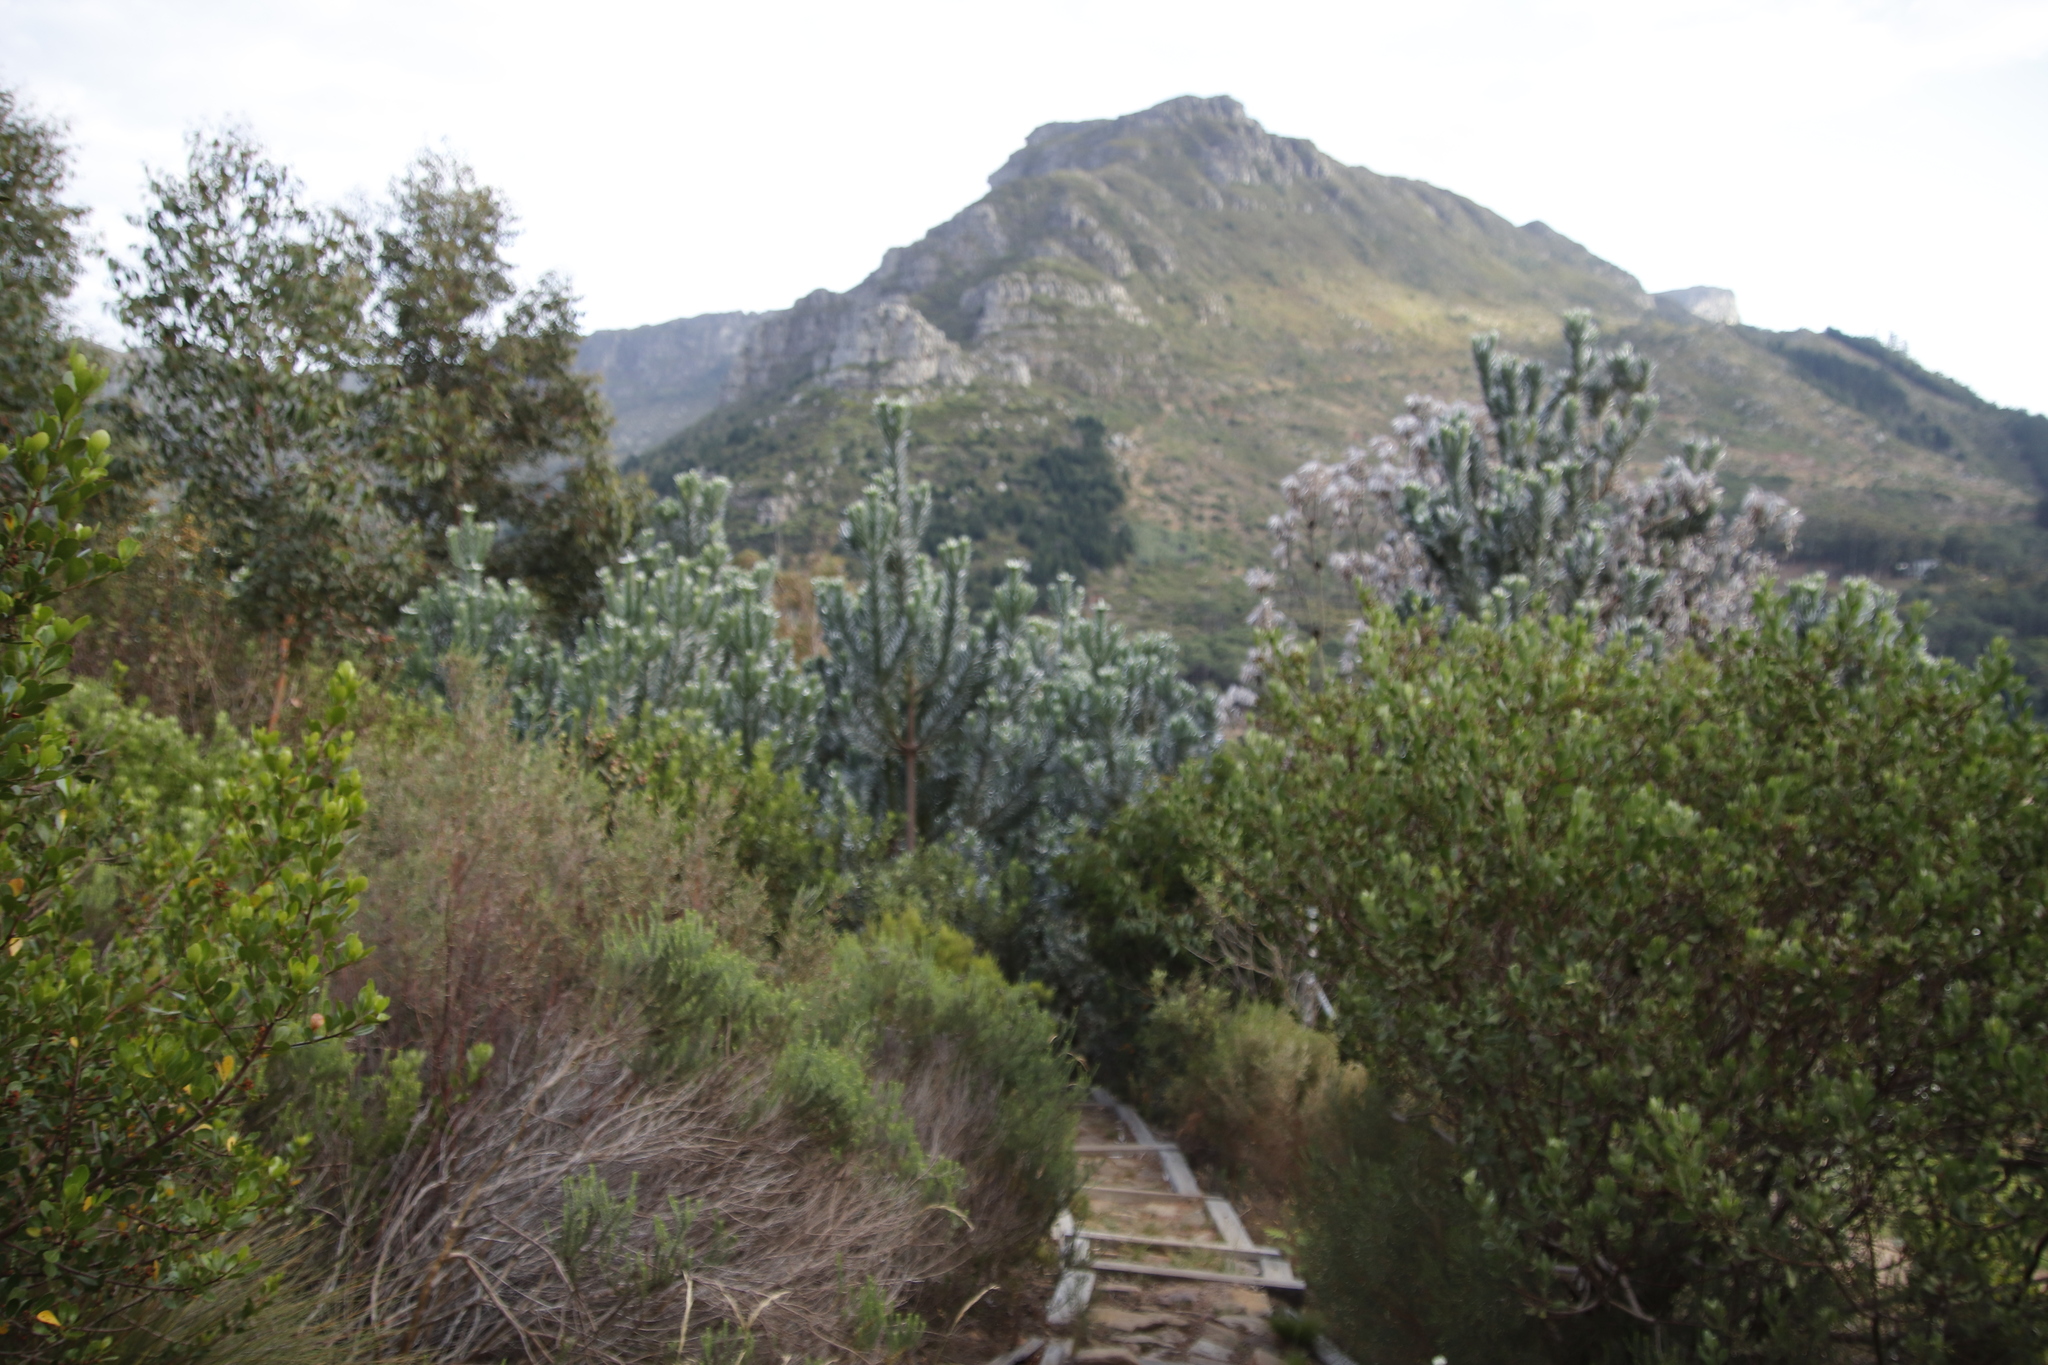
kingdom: Plantae
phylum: Tracheophyta
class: Magnoliopsida
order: Proteales
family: Proteaceae
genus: Leucadendron
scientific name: Leucadendron argenteum
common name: Cape silver tree
